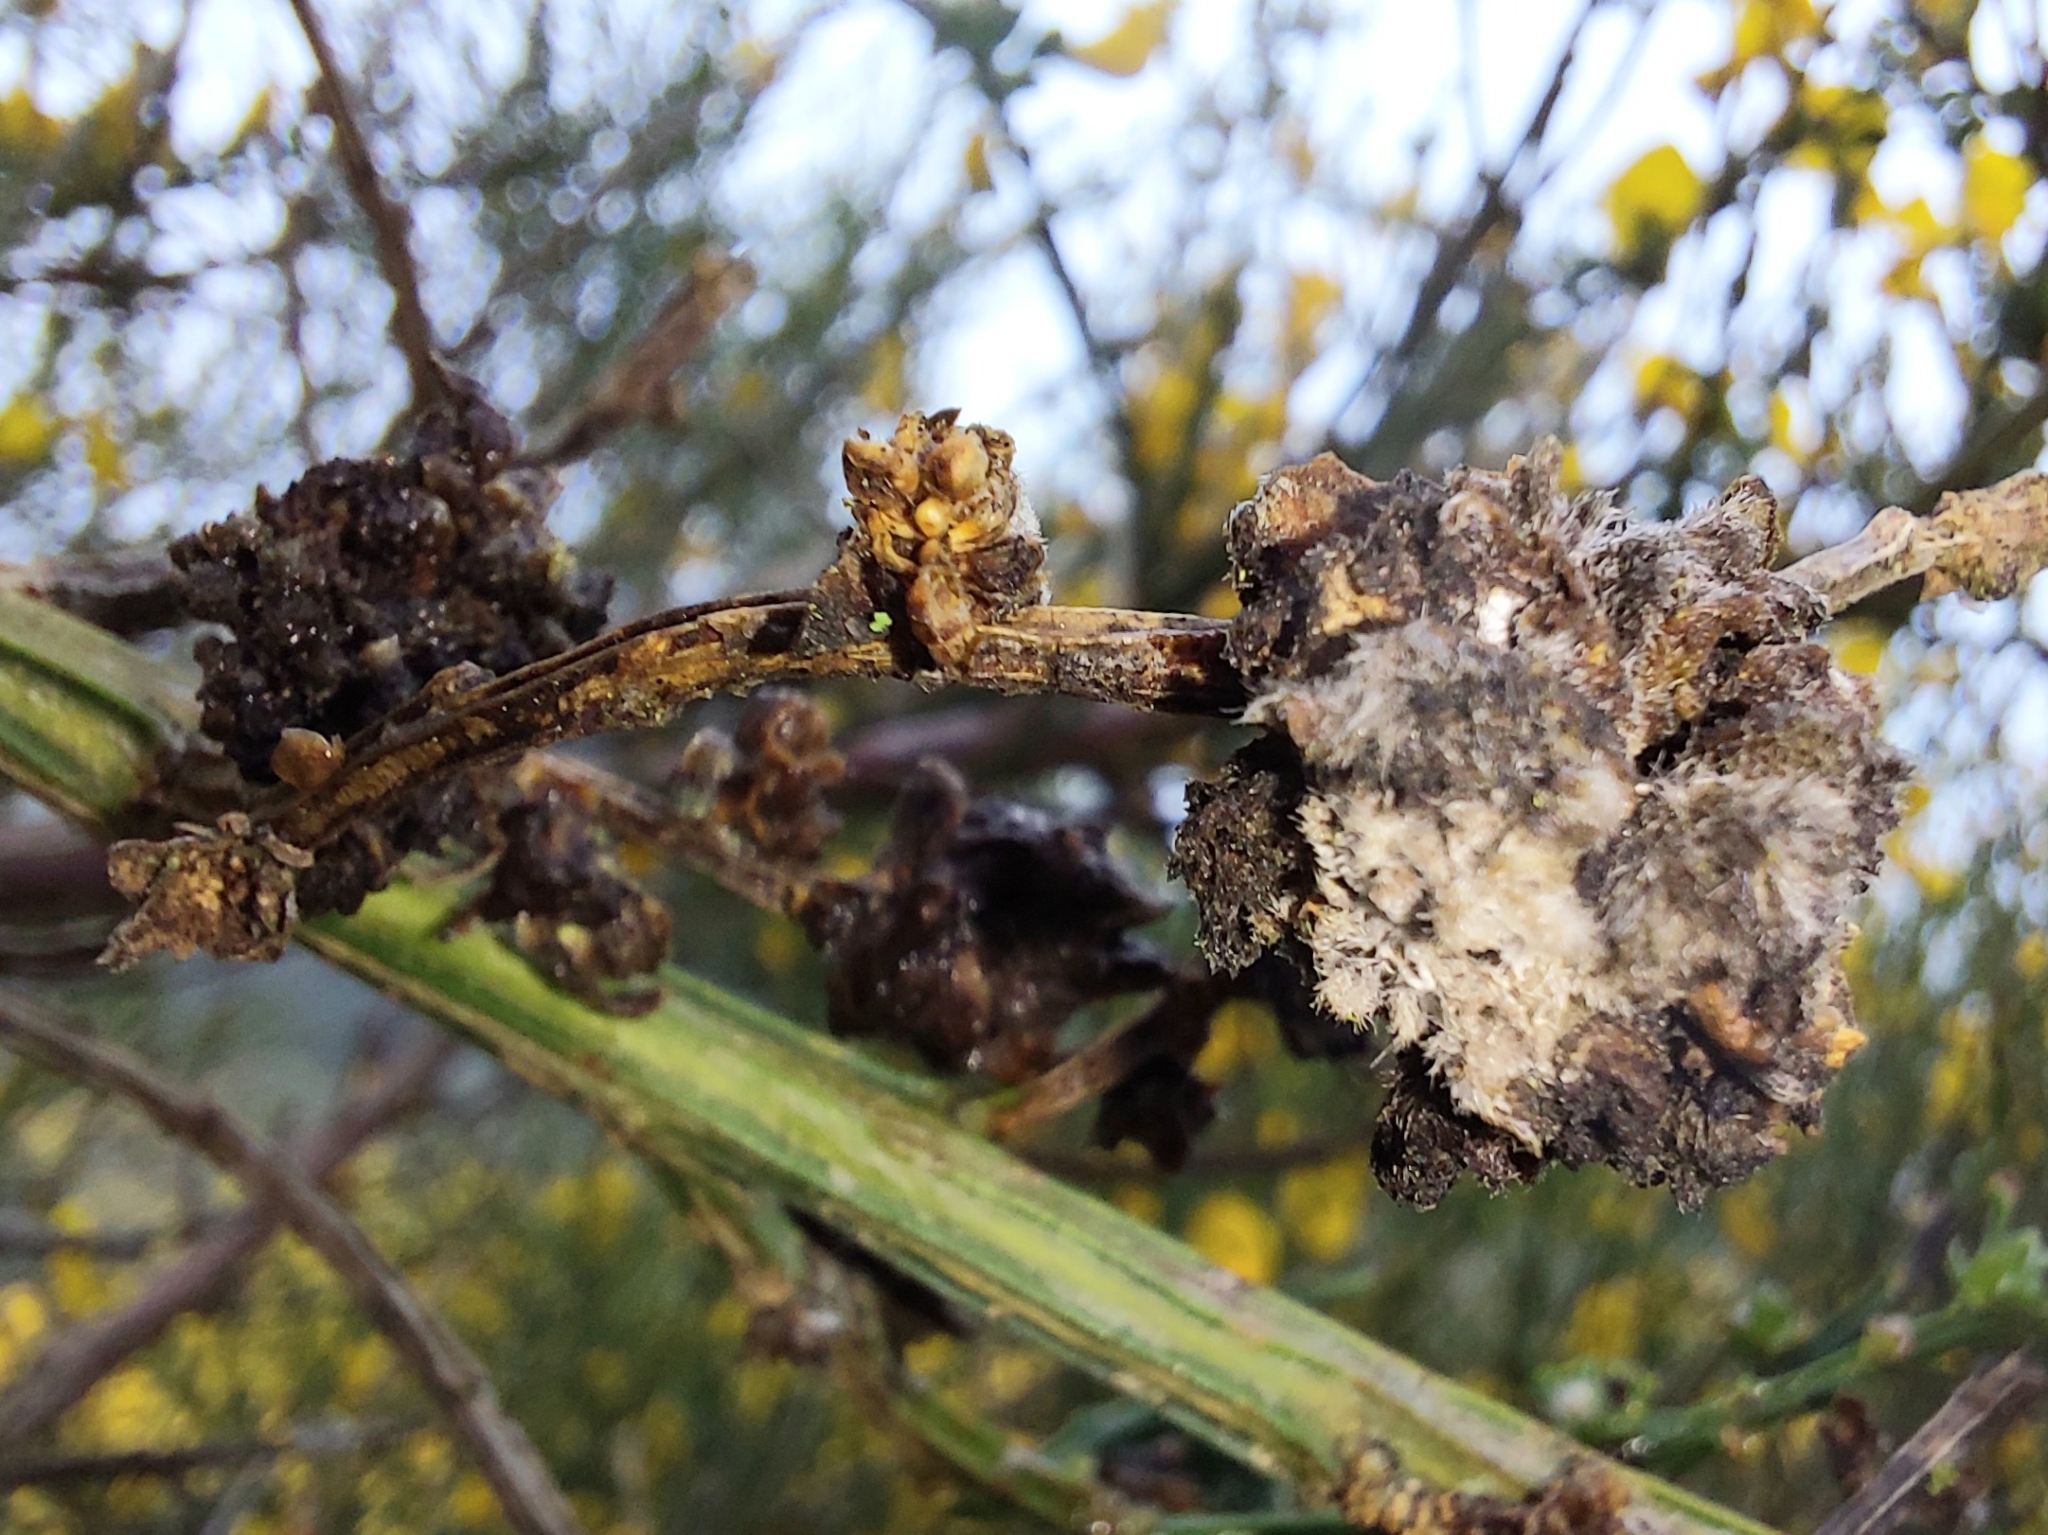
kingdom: Animalia
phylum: Arthropoda
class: Arachnida
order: Trombidiformes
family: Eriophyidae
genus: Aceria
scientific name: Aceria genistae
